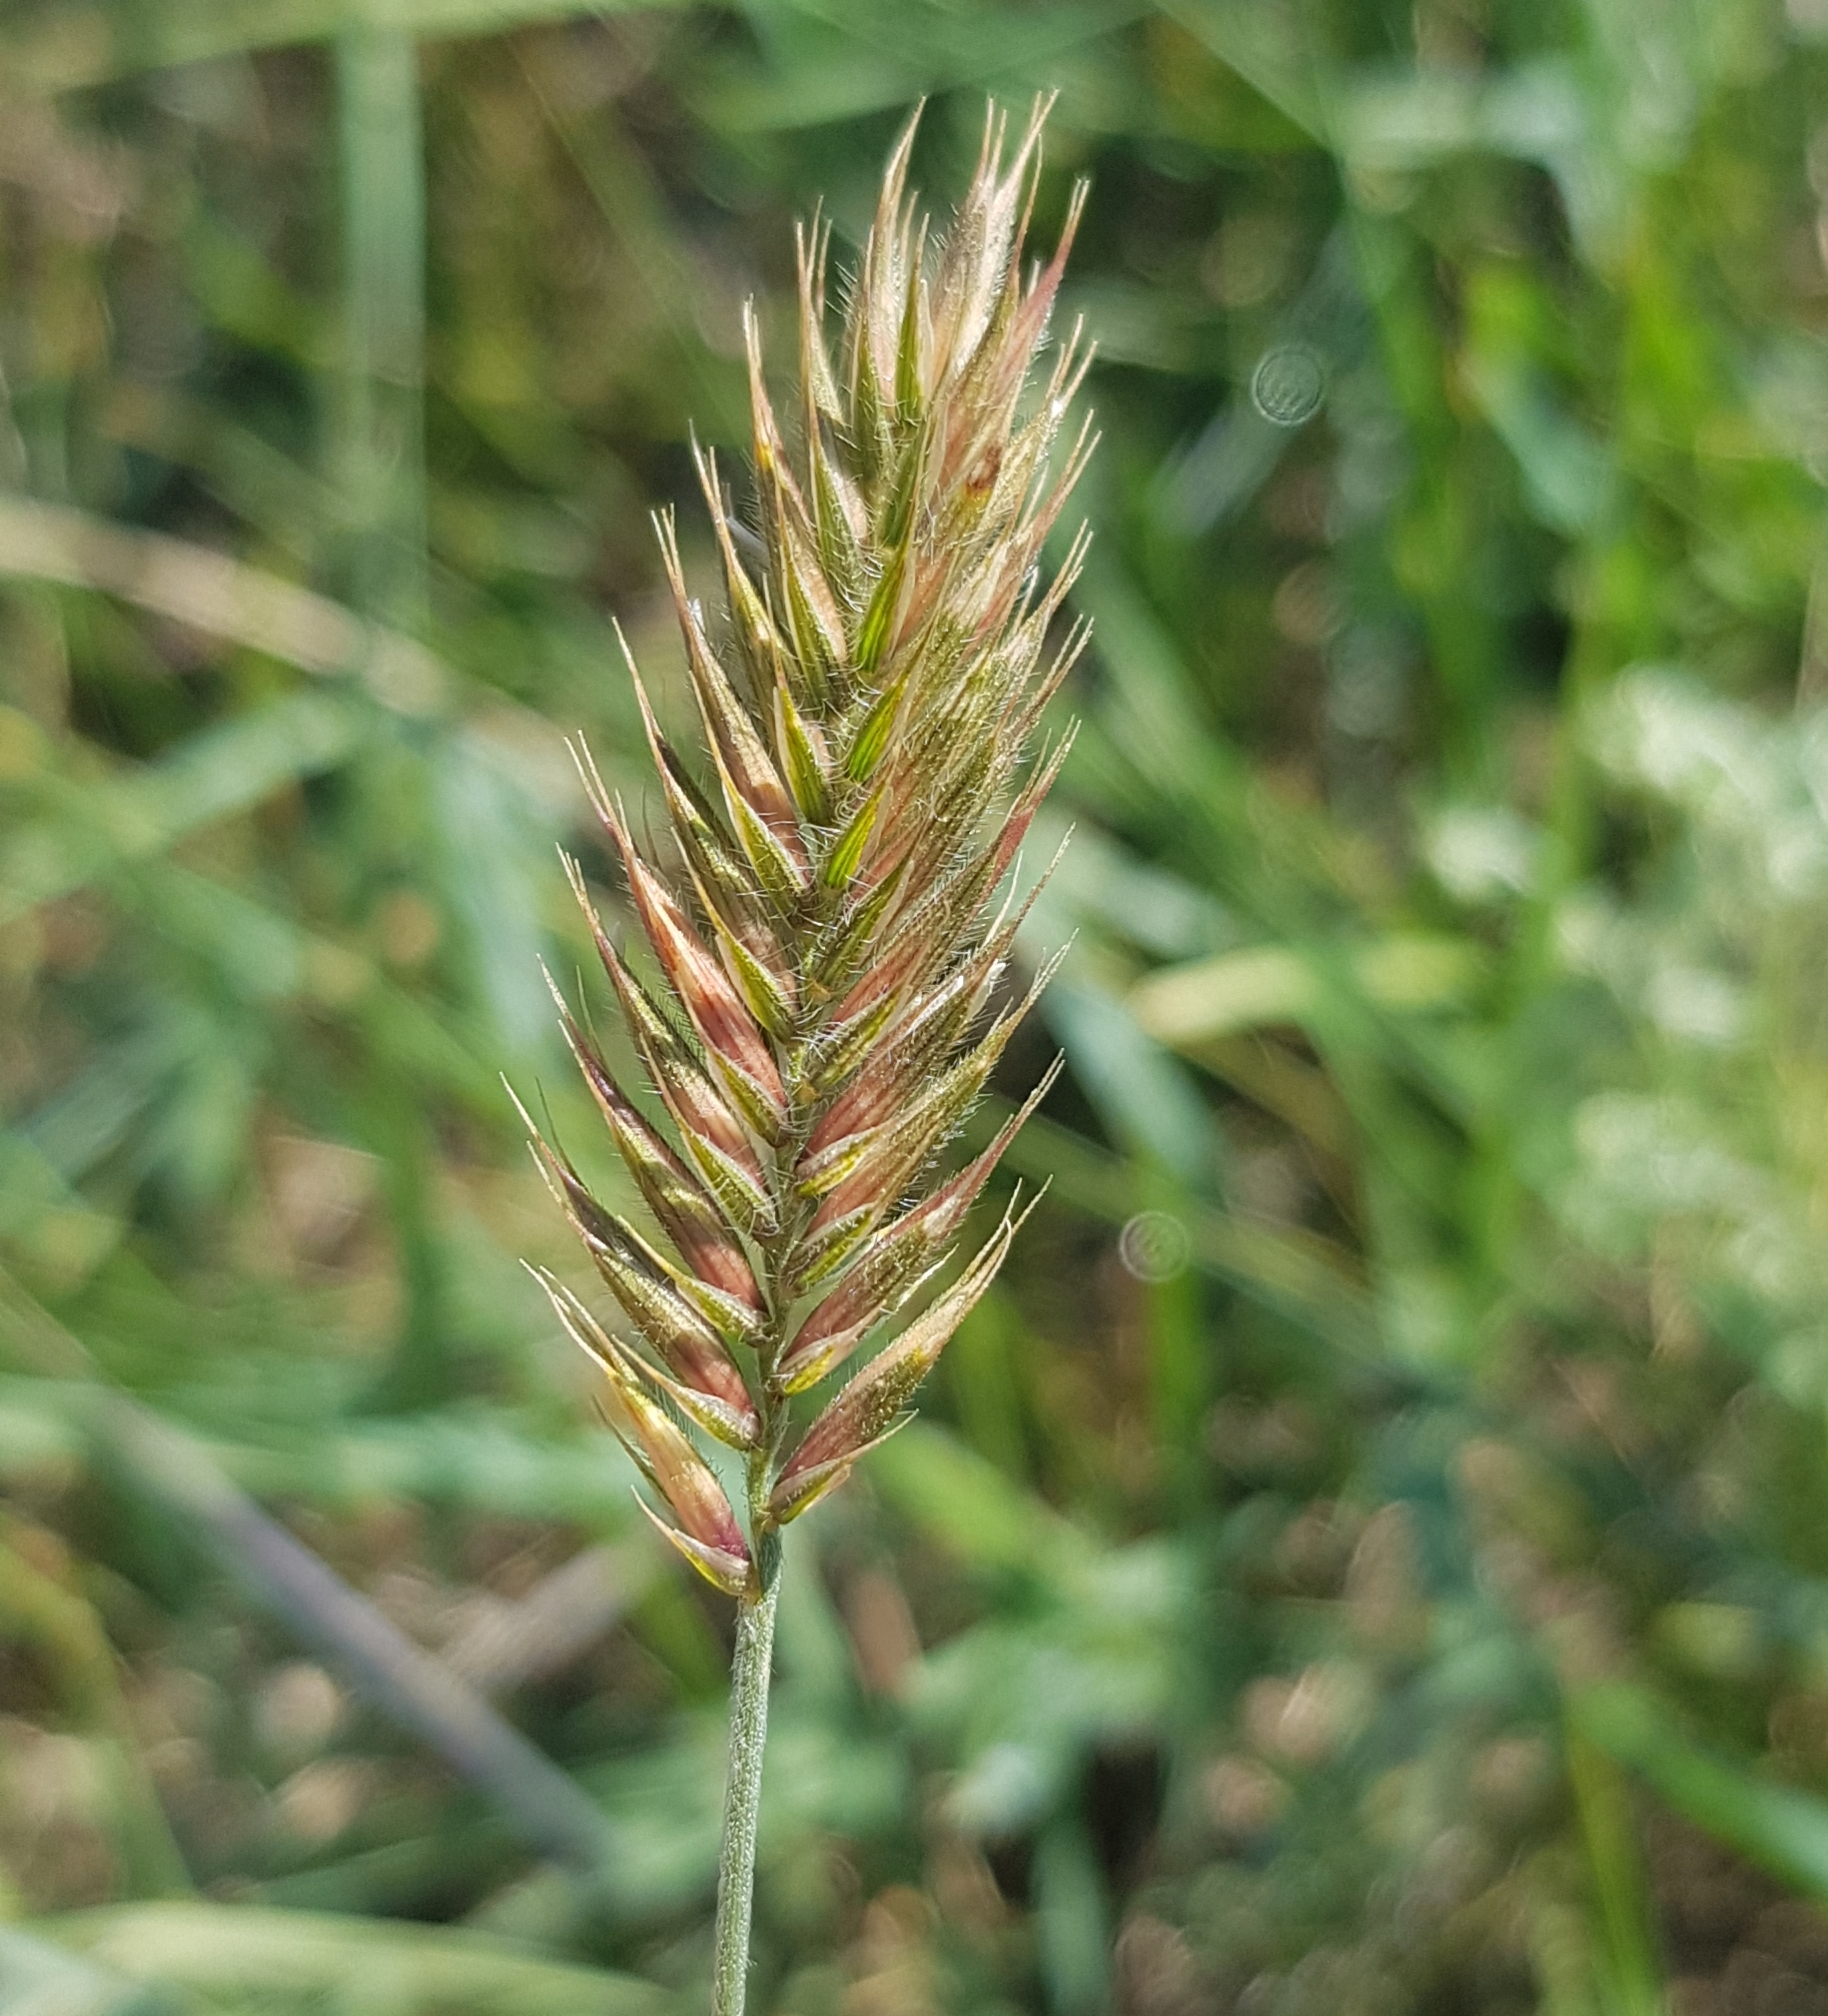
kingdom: Plantae
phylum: Tracheophyta
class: Liliopsida
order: Poales
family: Poaceae
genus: Agropyron
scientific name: Agropyron cristatum
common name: Crested wheatgrass
